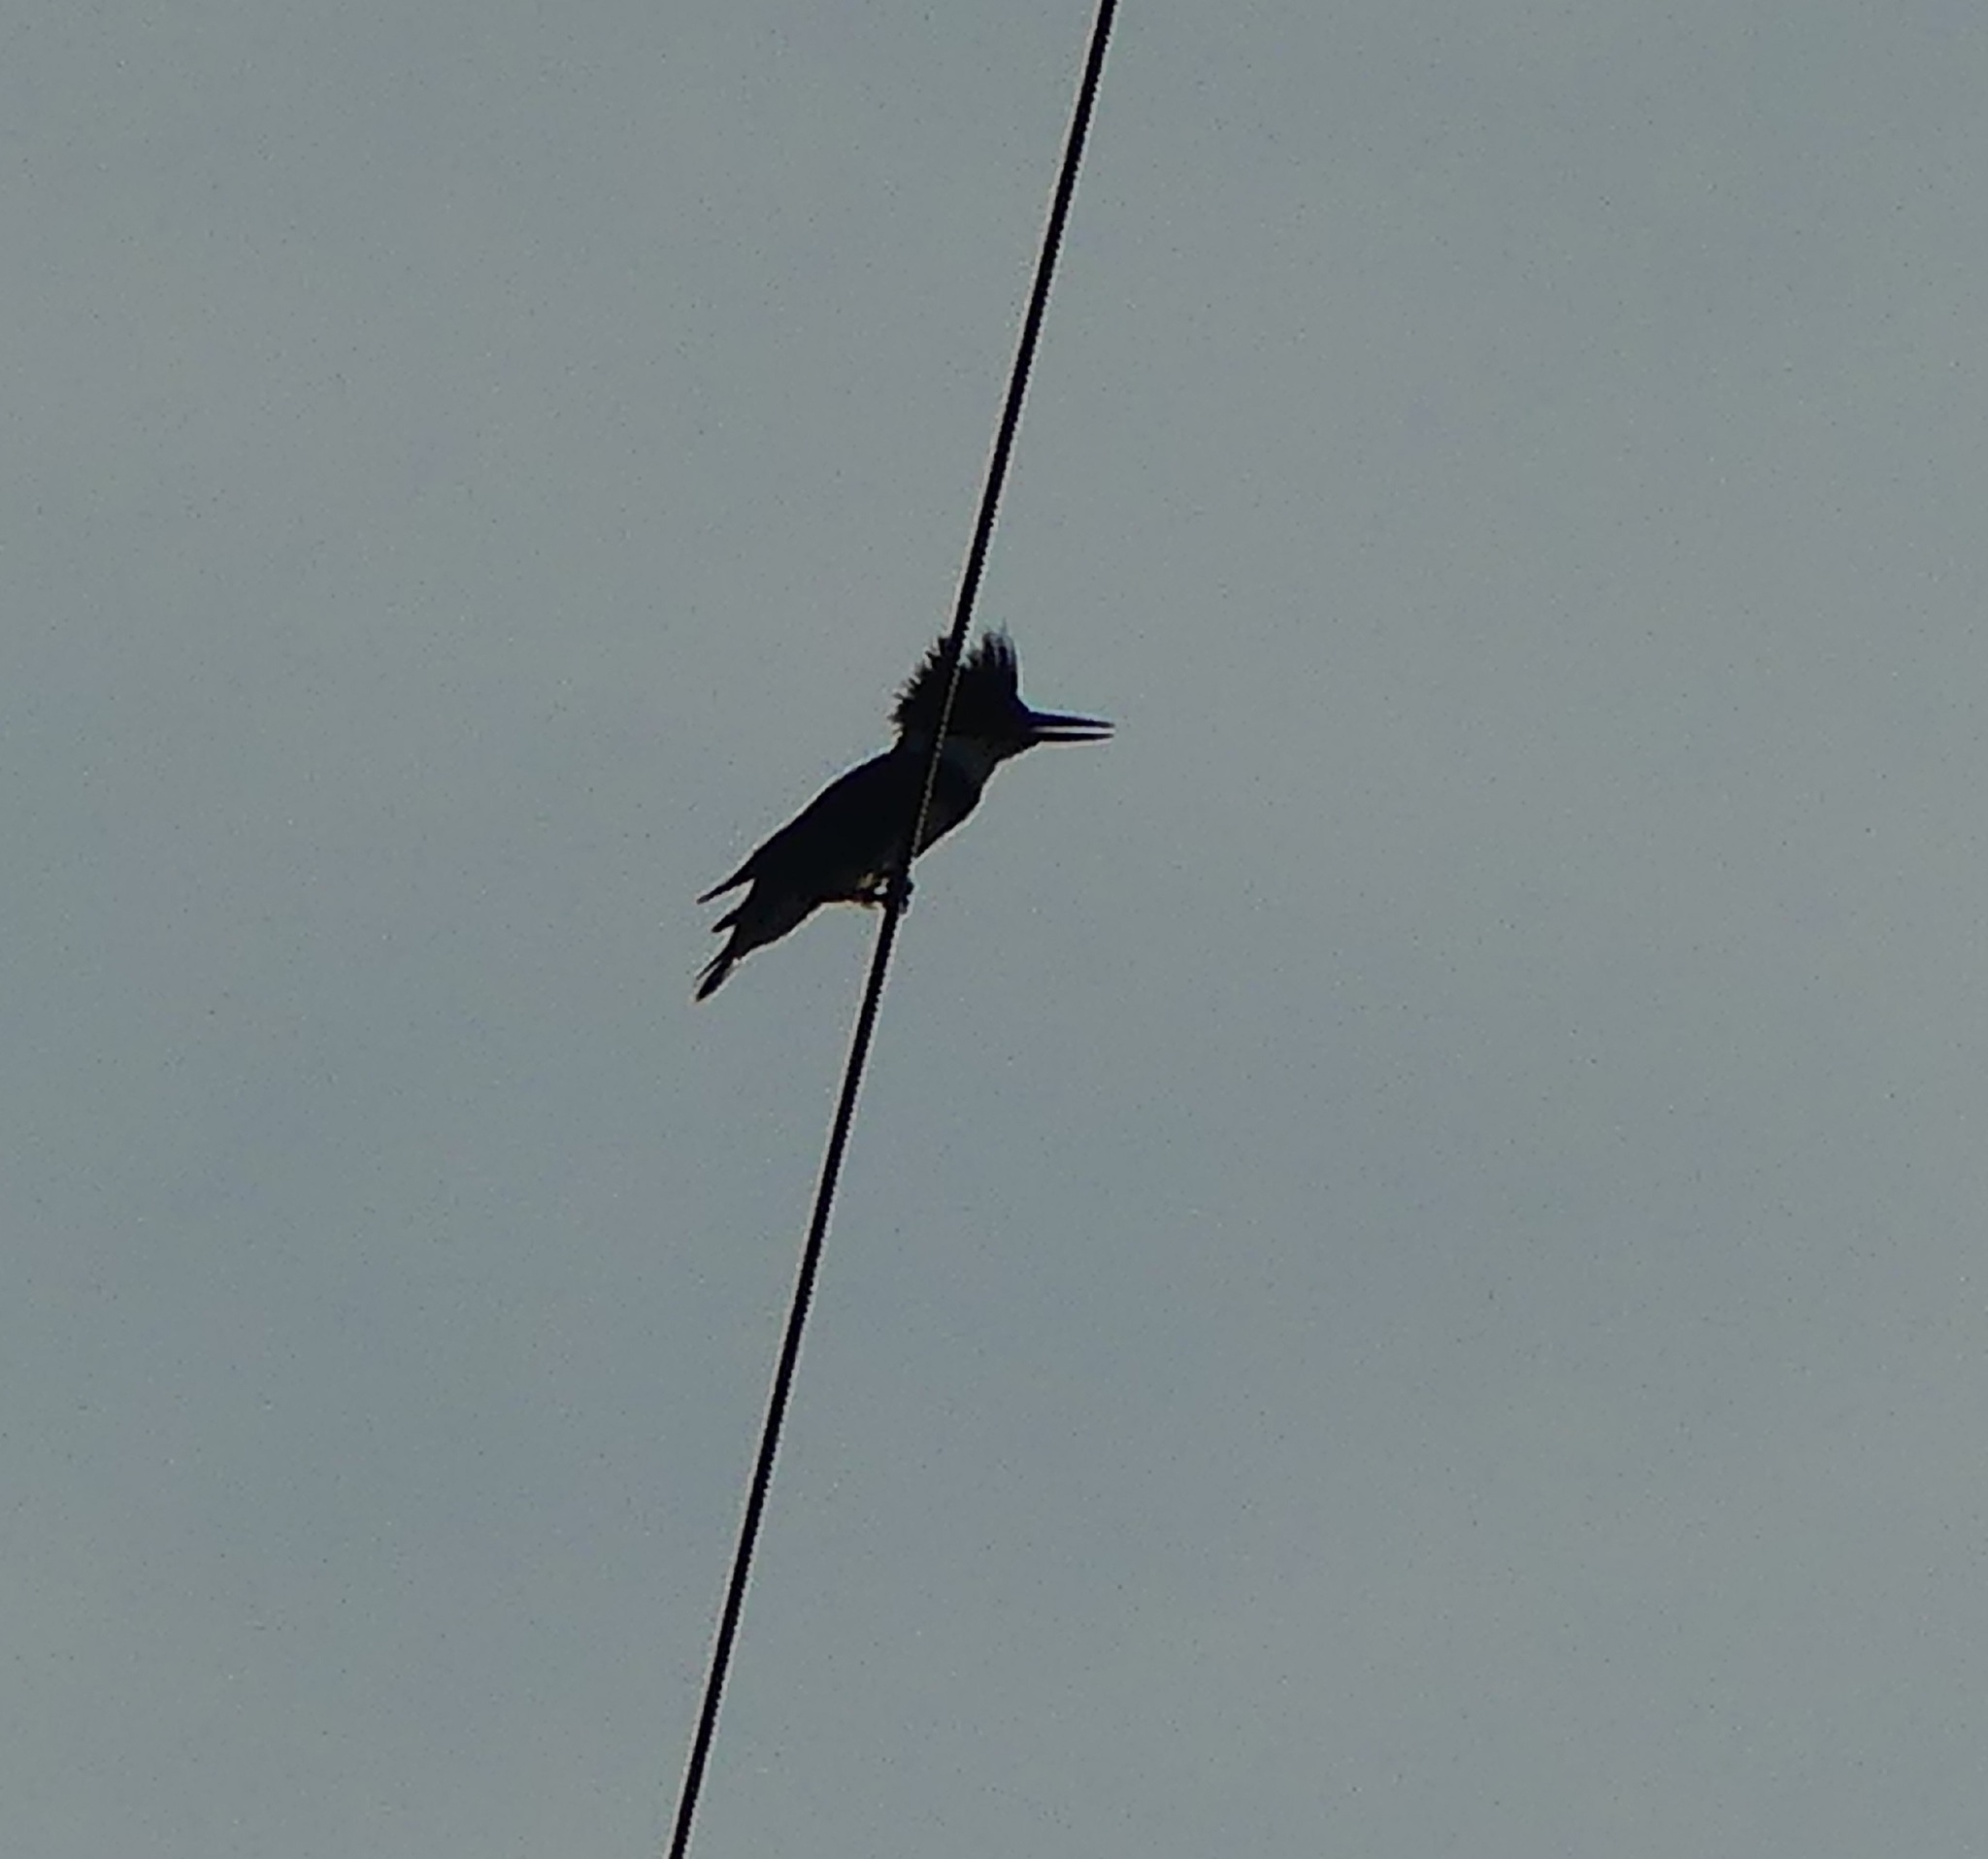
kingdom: Animalia
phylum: Chordata
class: Aves
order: Coraciiformes
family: Alcedinidae
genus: Megaceryle
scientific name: Megaceryle alcyon
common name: Belted kingfisher
